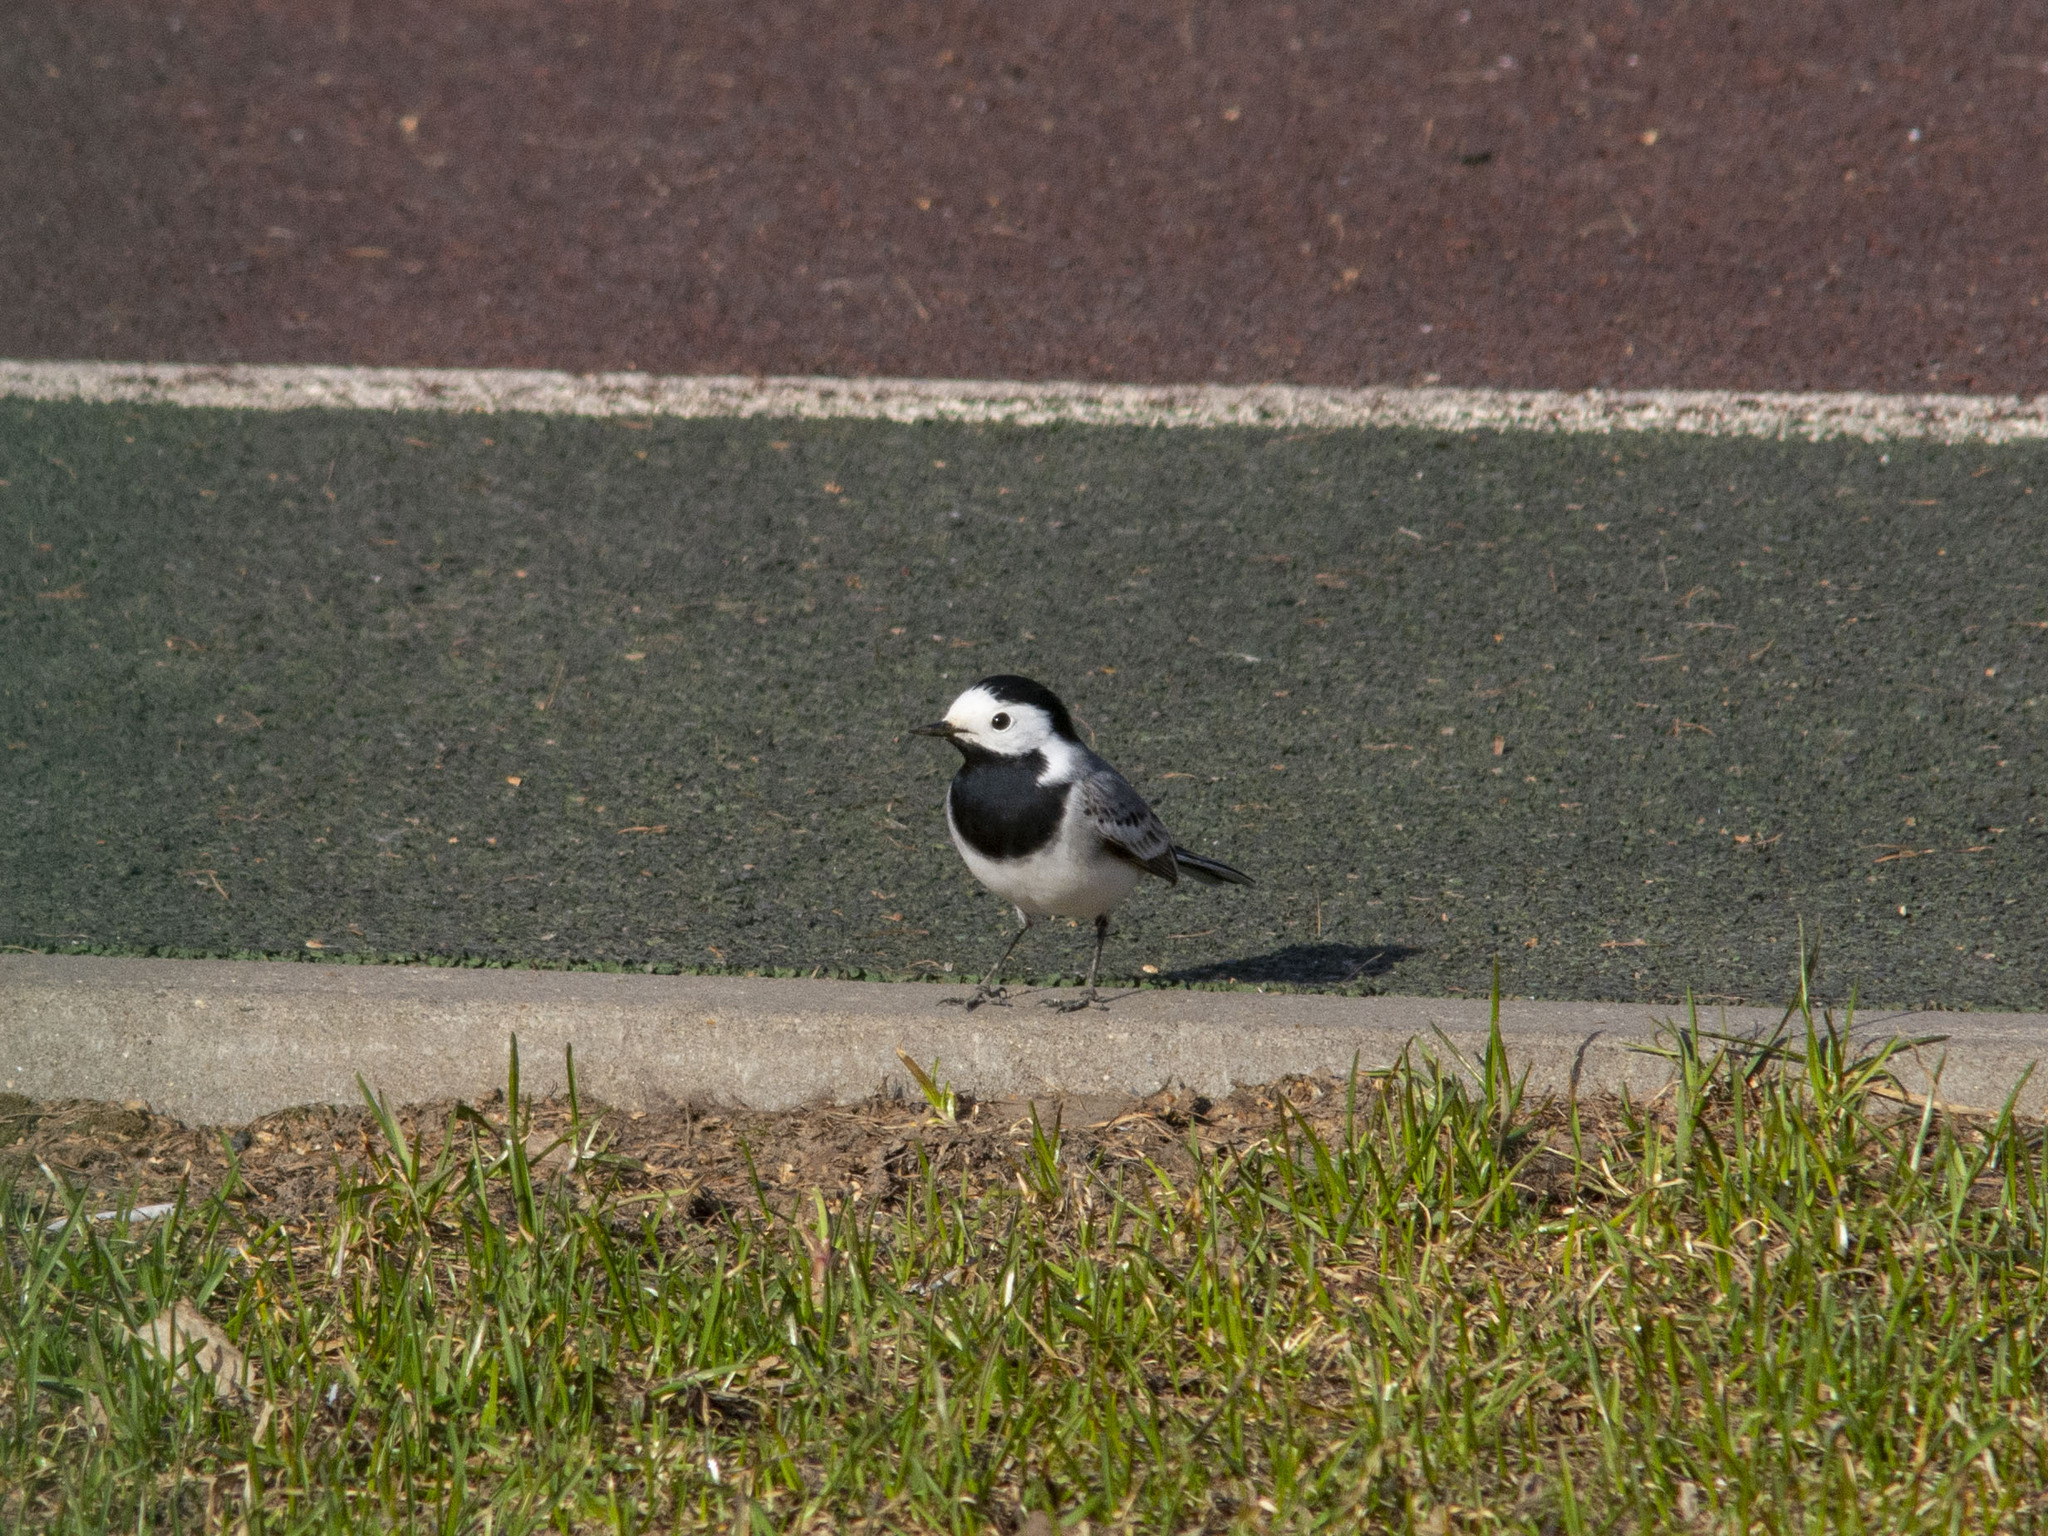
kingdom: Animalia
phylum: Chordata
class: Aves
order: Passeriformes
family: Motacillidae
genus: Motacilla
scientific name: Motacilla alba
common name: White wagtail
